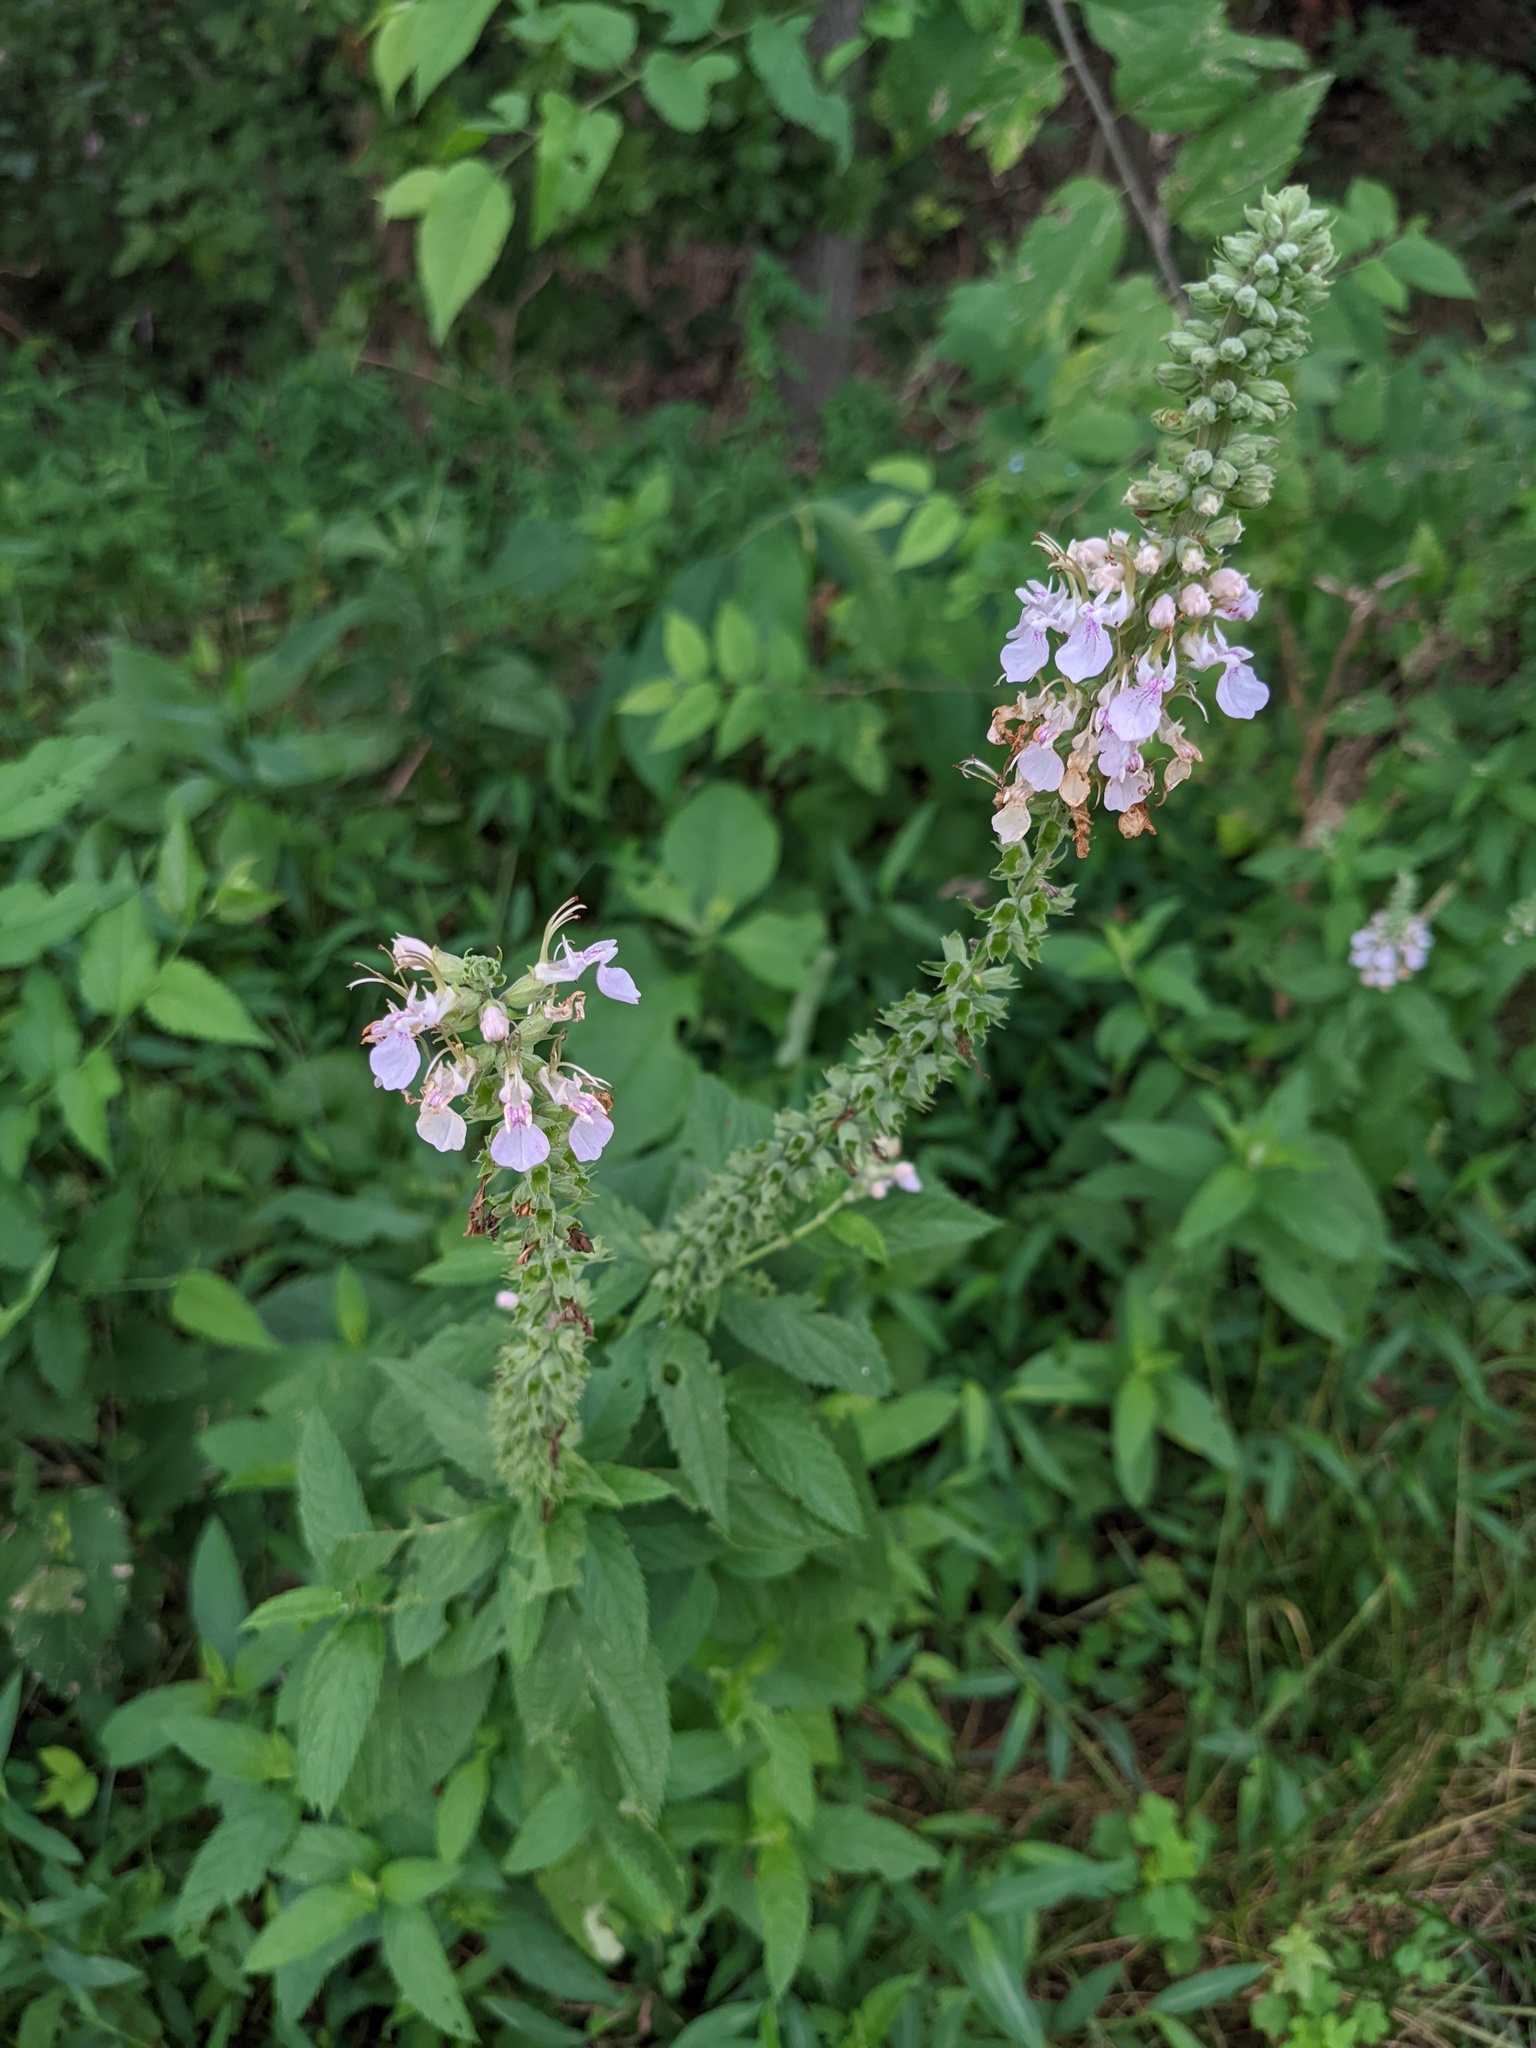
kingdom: Plantae
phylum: Tracheophyta
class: Magnoliopsida
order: Lamiales
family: Lamiaceae
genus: Teucrium
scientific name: Teucrium canadense
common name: American germander
